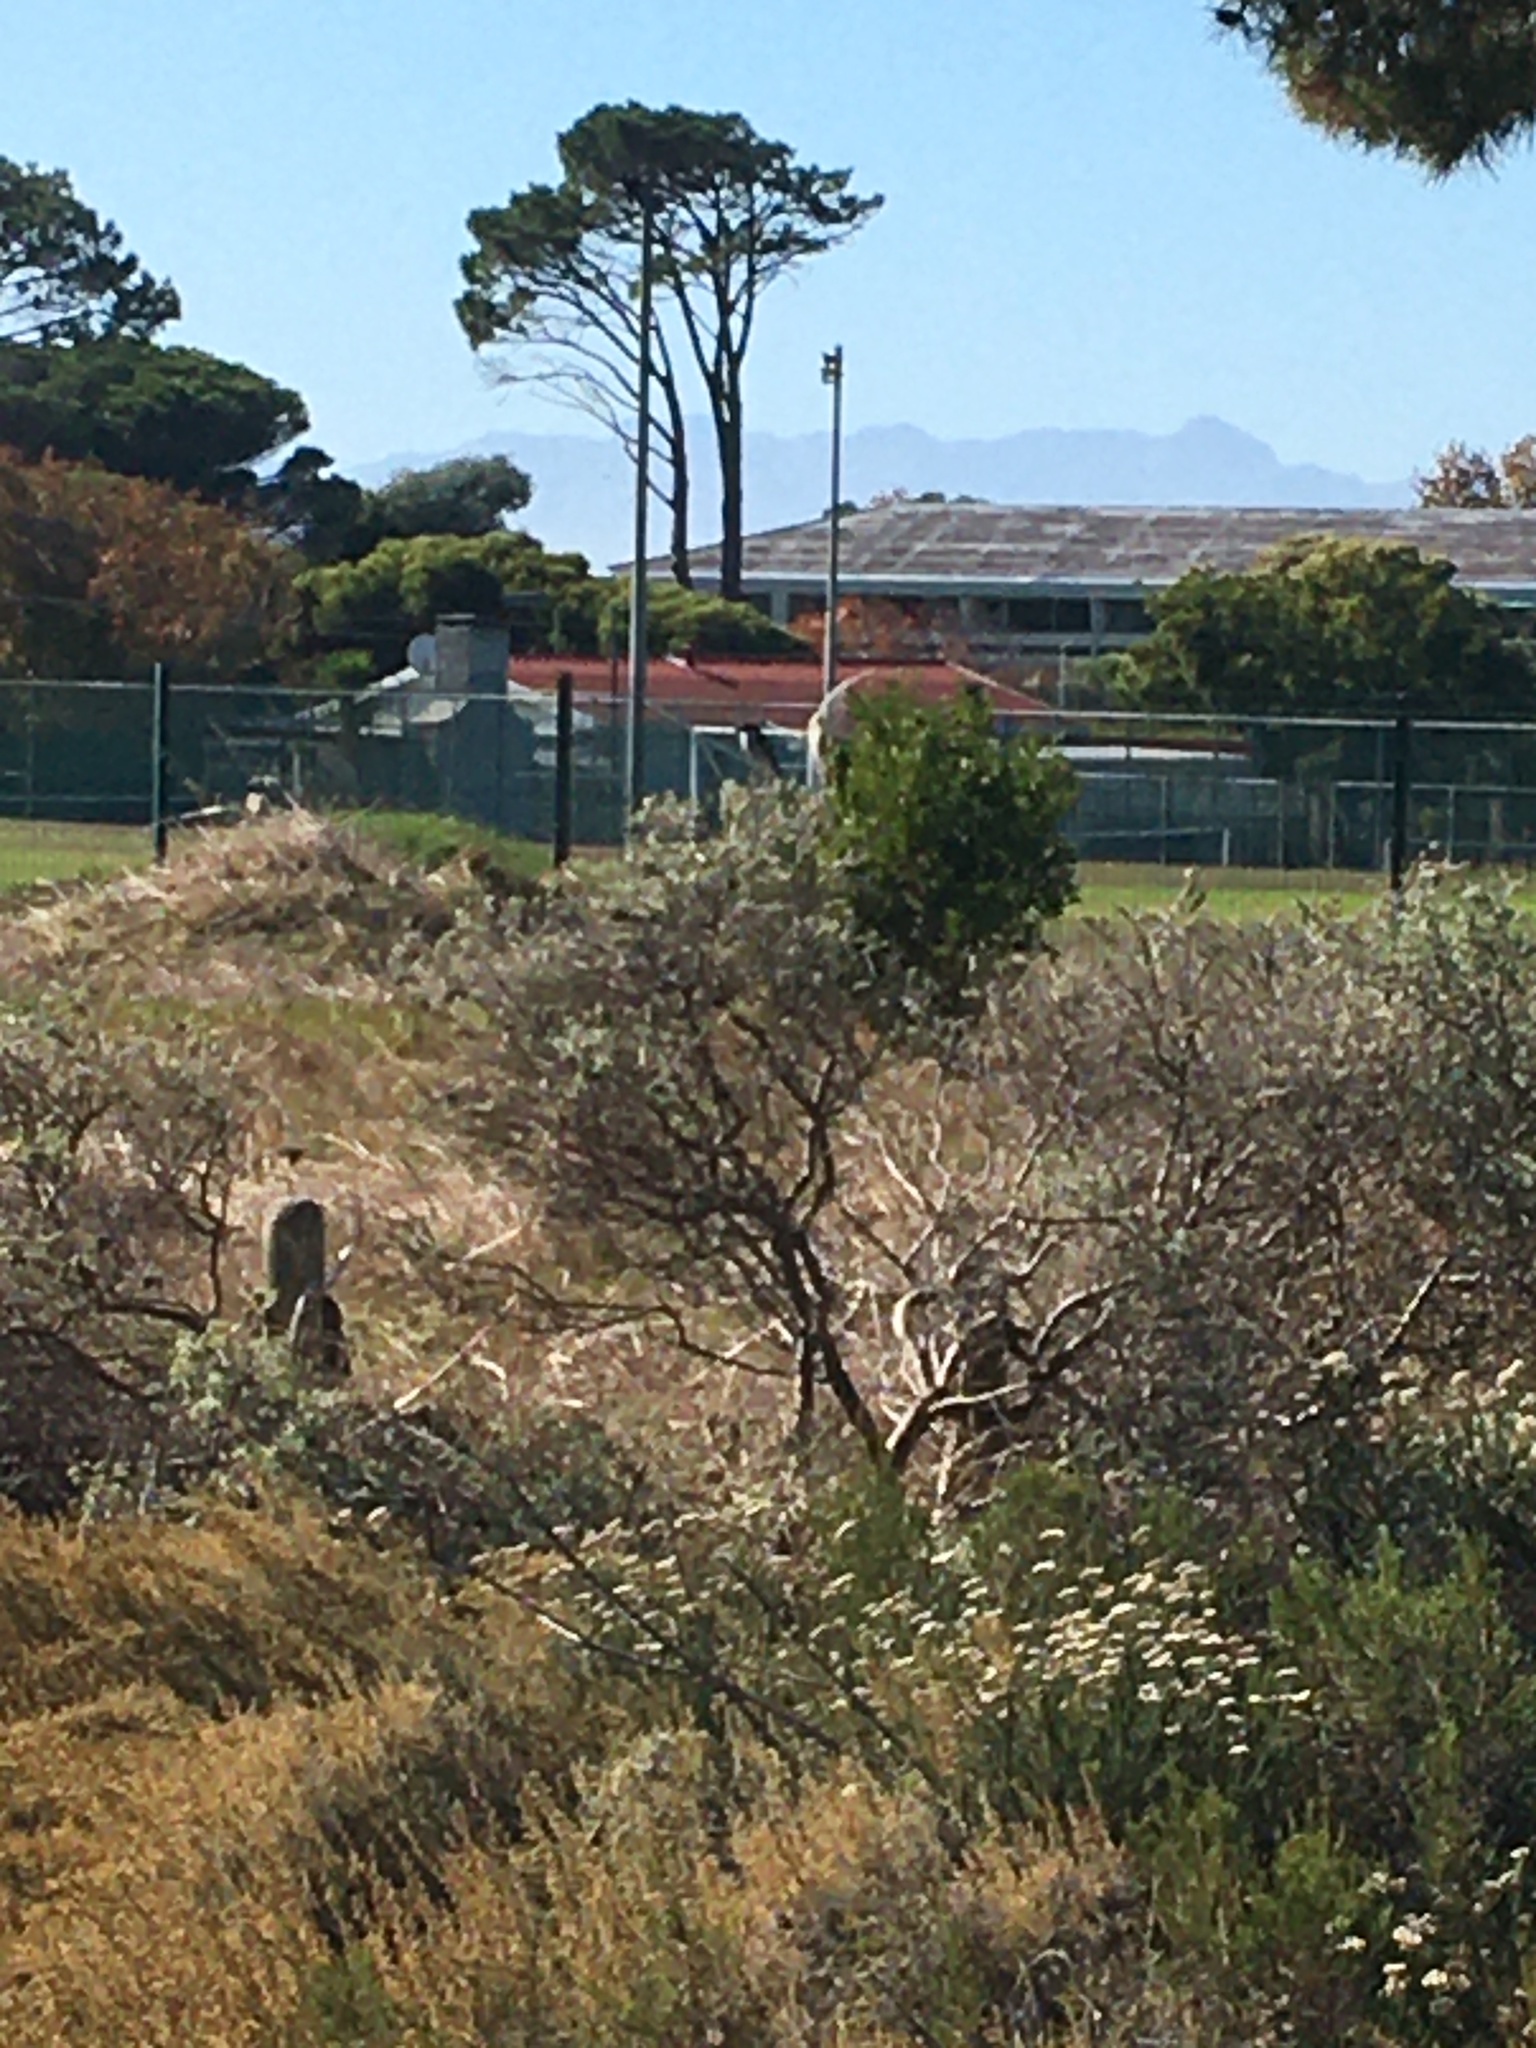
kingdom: Animalia
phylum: Chordata
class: Aves
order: Passeriformes
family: Laniidae
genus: Lanius
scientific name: Lanius collaris
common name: Southern fiscal
